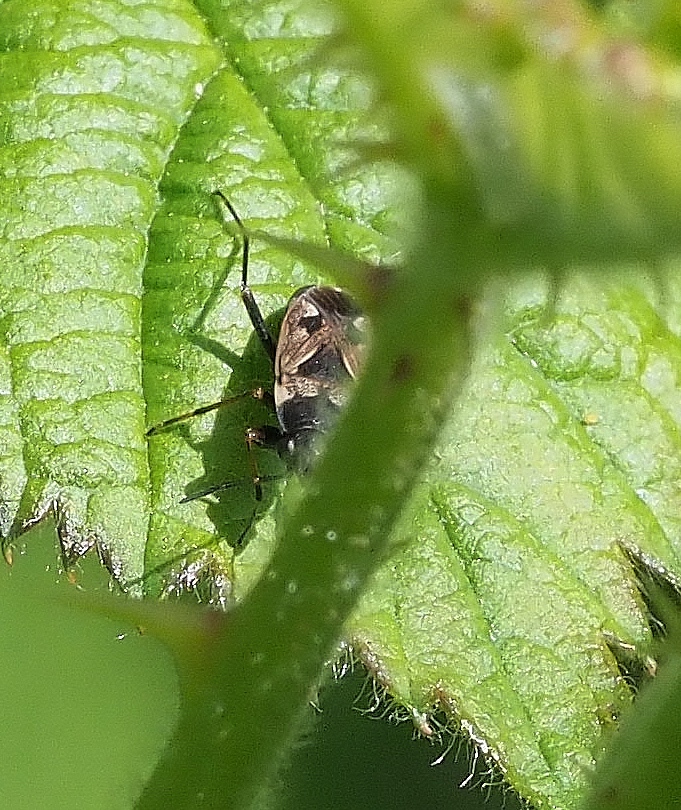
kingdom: Animalia
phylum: Arthropoda
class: Insecta
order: Hemiptera
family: Rhyparochromidae
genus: Rhyparochromus
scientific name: Rhyparochromus vulgaris
